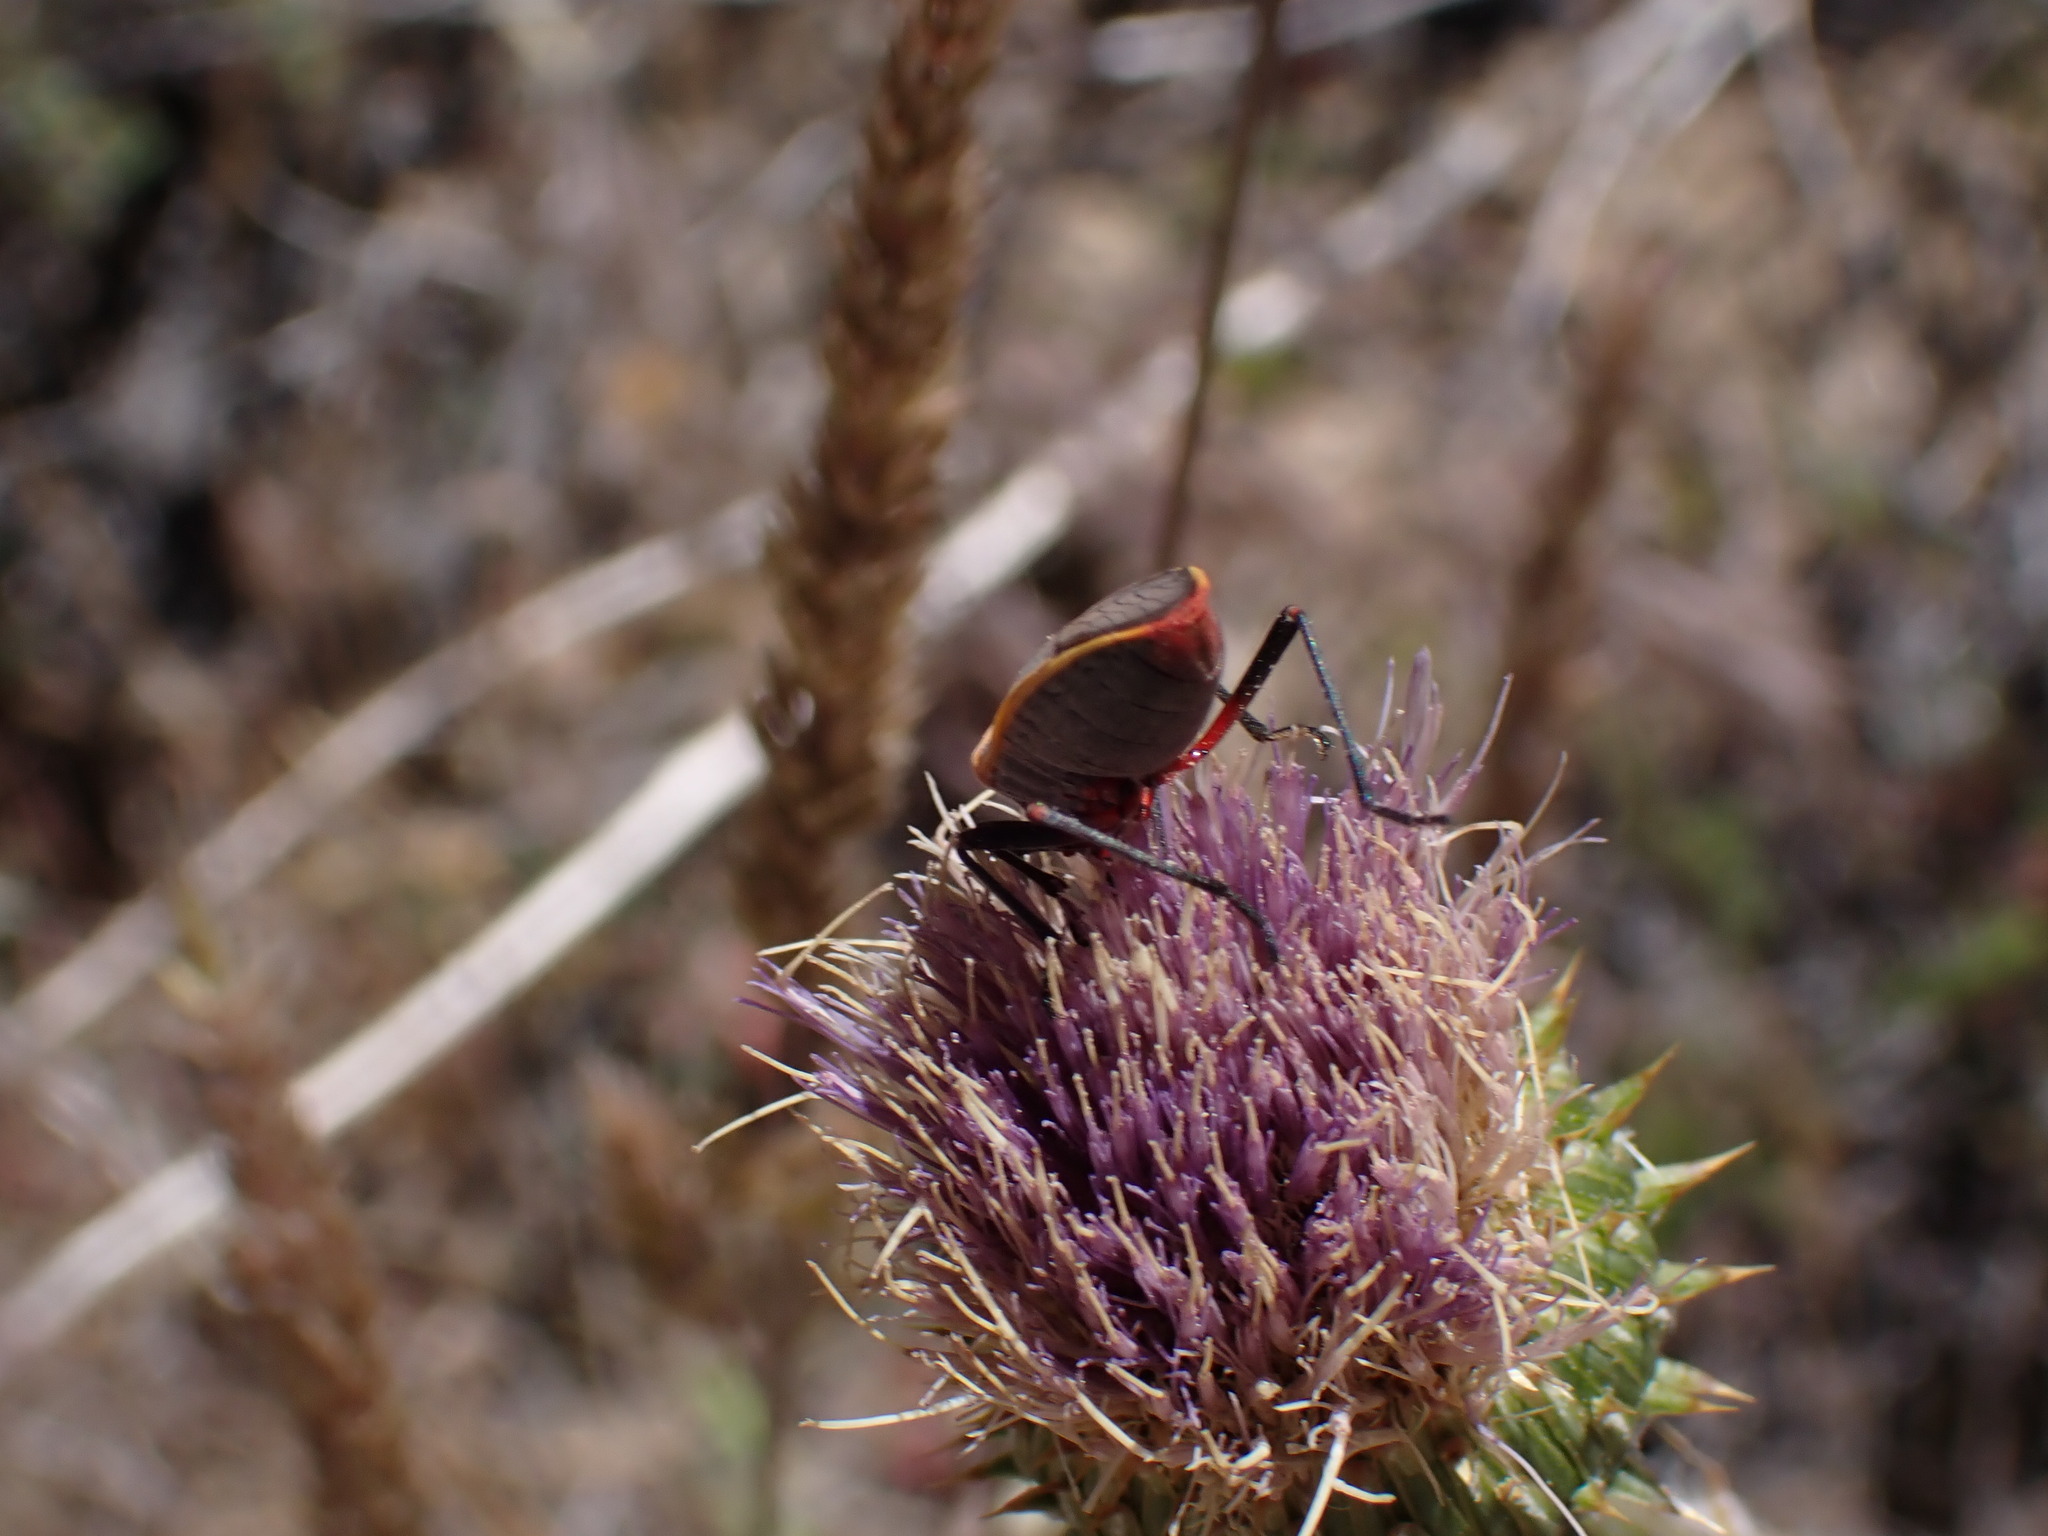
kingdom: Animalia
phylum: Arthropoda
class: Insecta
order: Hemiptera
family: Largidae
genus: Largus
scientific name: Largus californicus
